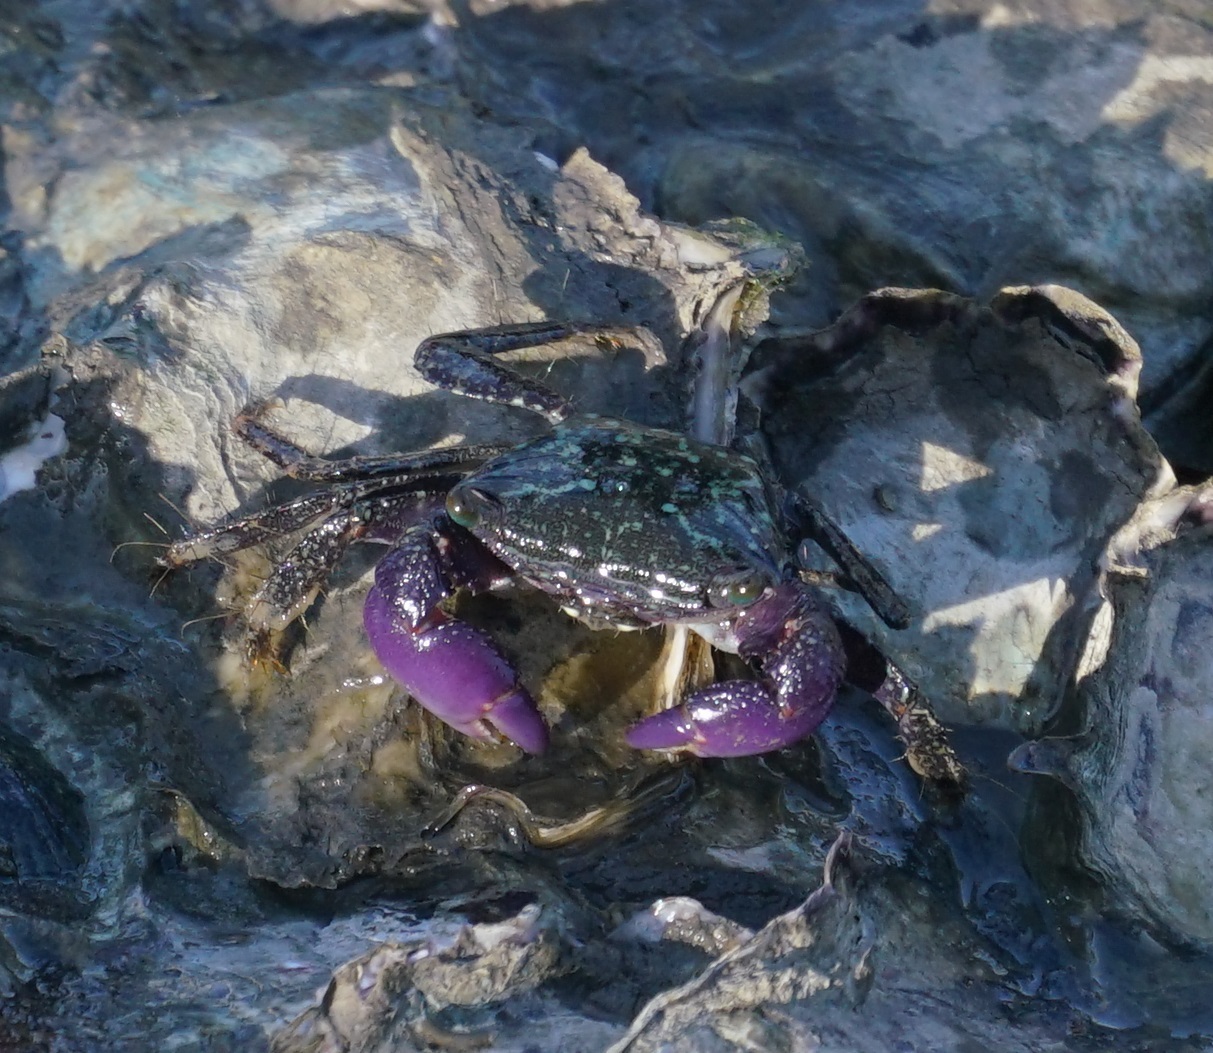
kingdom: Animalia
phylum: Arthropoda
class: Malacostraca
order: Decapoda
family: Grapsidae
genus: Metopograpsus
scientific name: Metopograpsus frontalis
